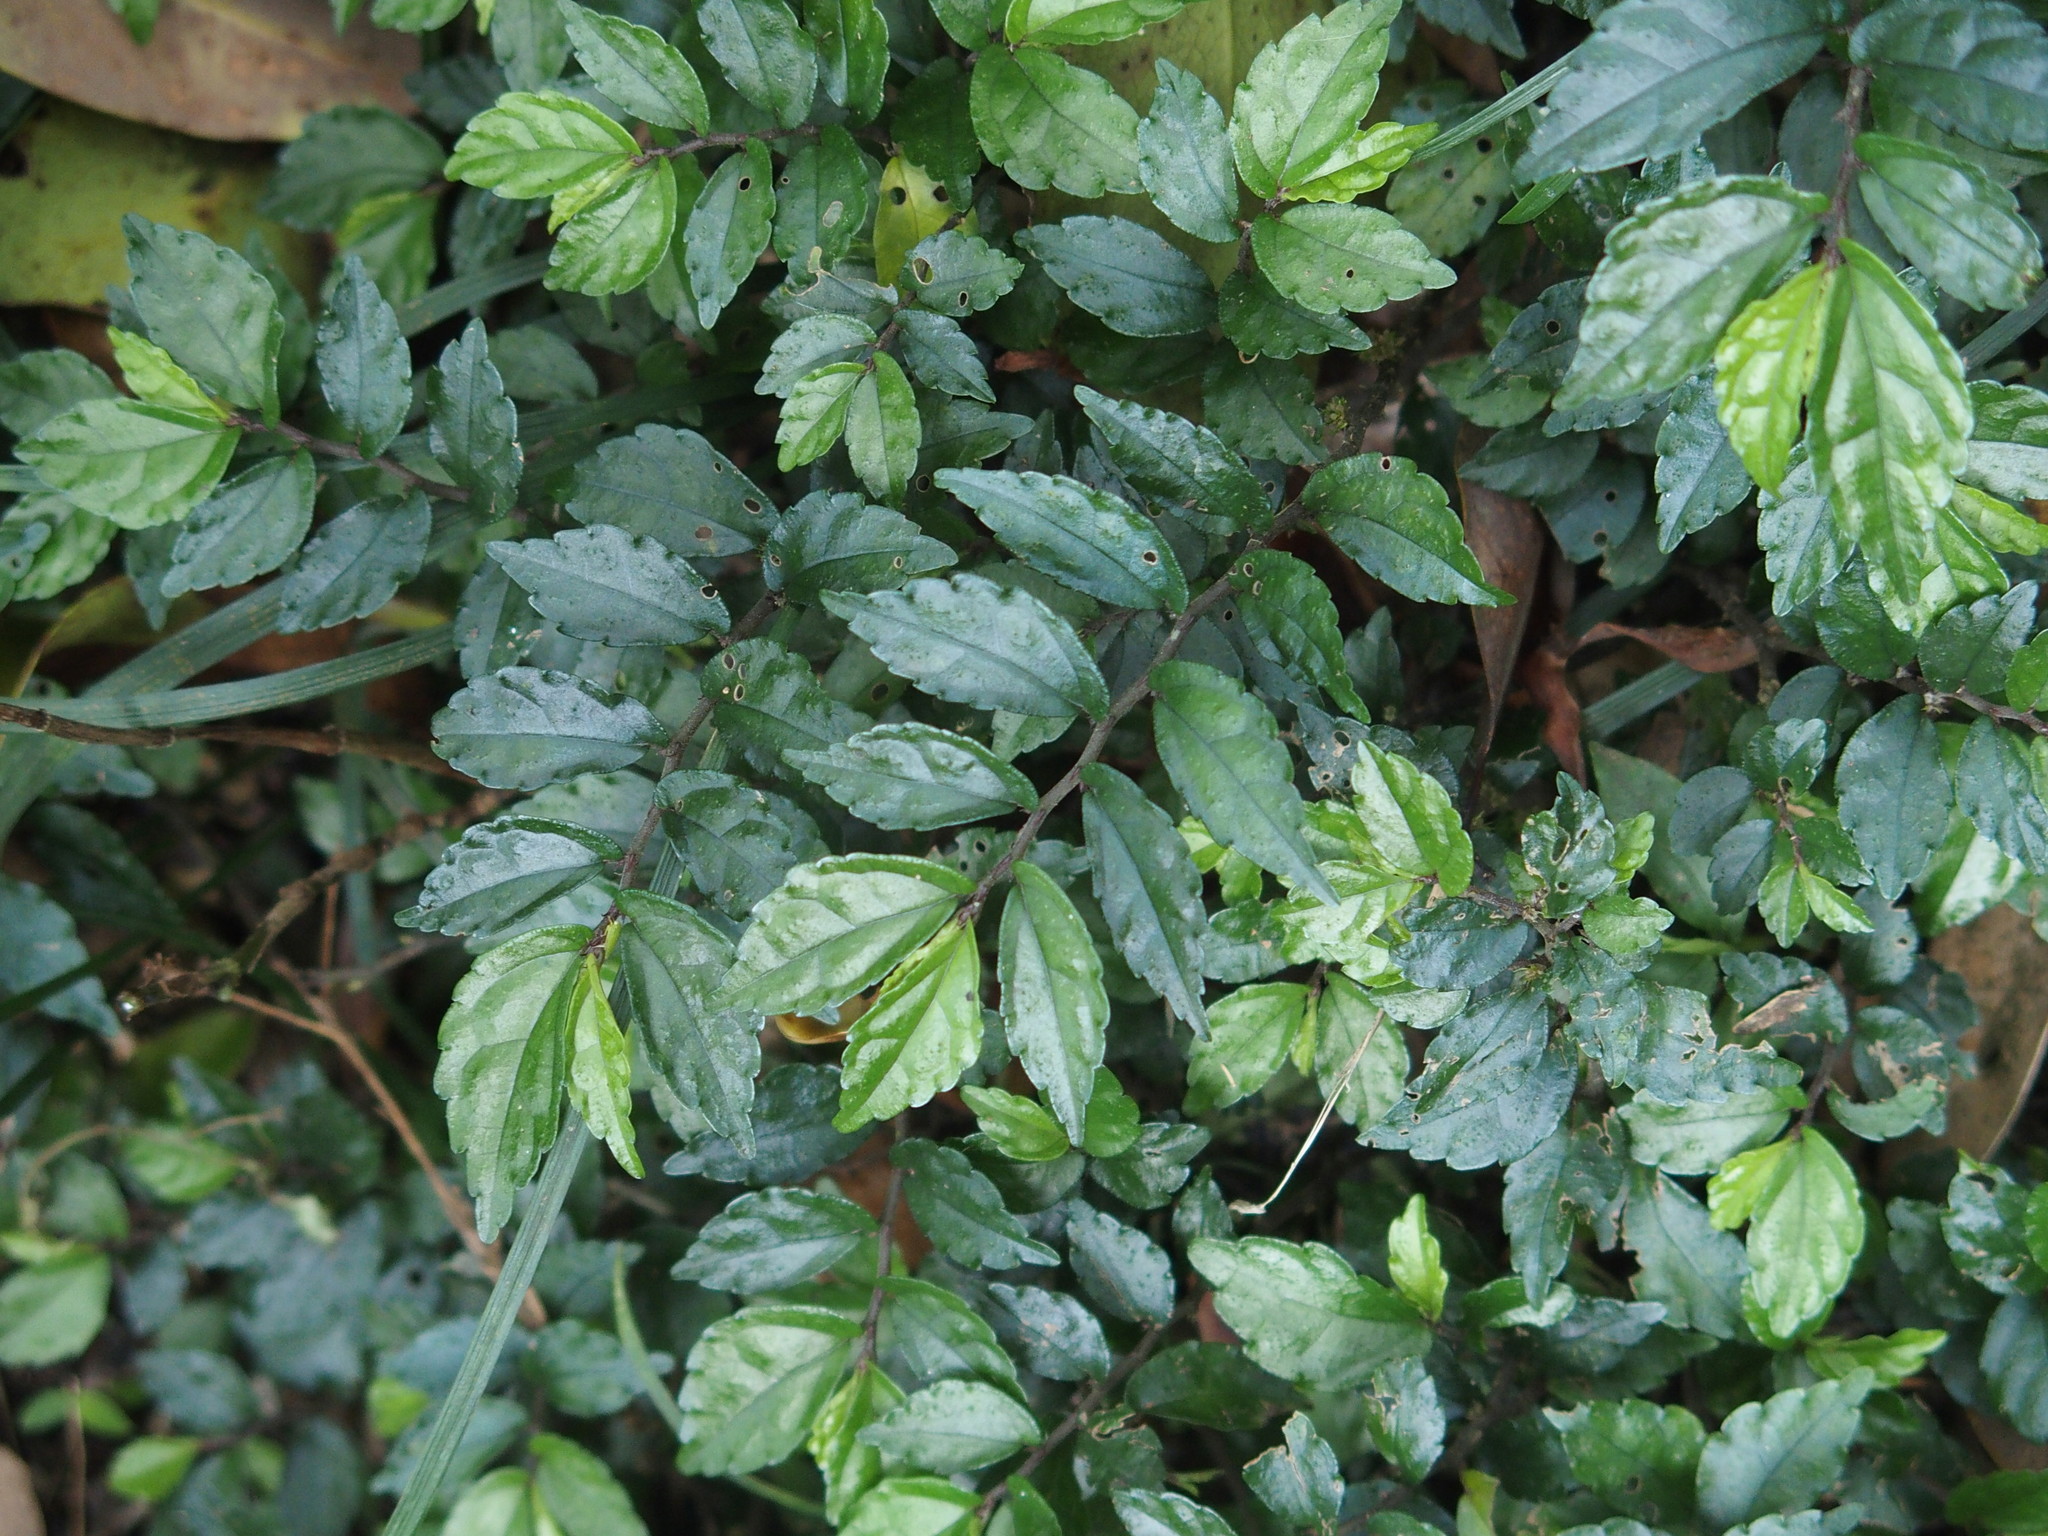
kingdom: Plantae
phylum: Tracheophyta
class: Magnoliopsida
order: Rosales
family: Urticaceae
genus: Elatostema
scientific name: Elatostema scabrum
